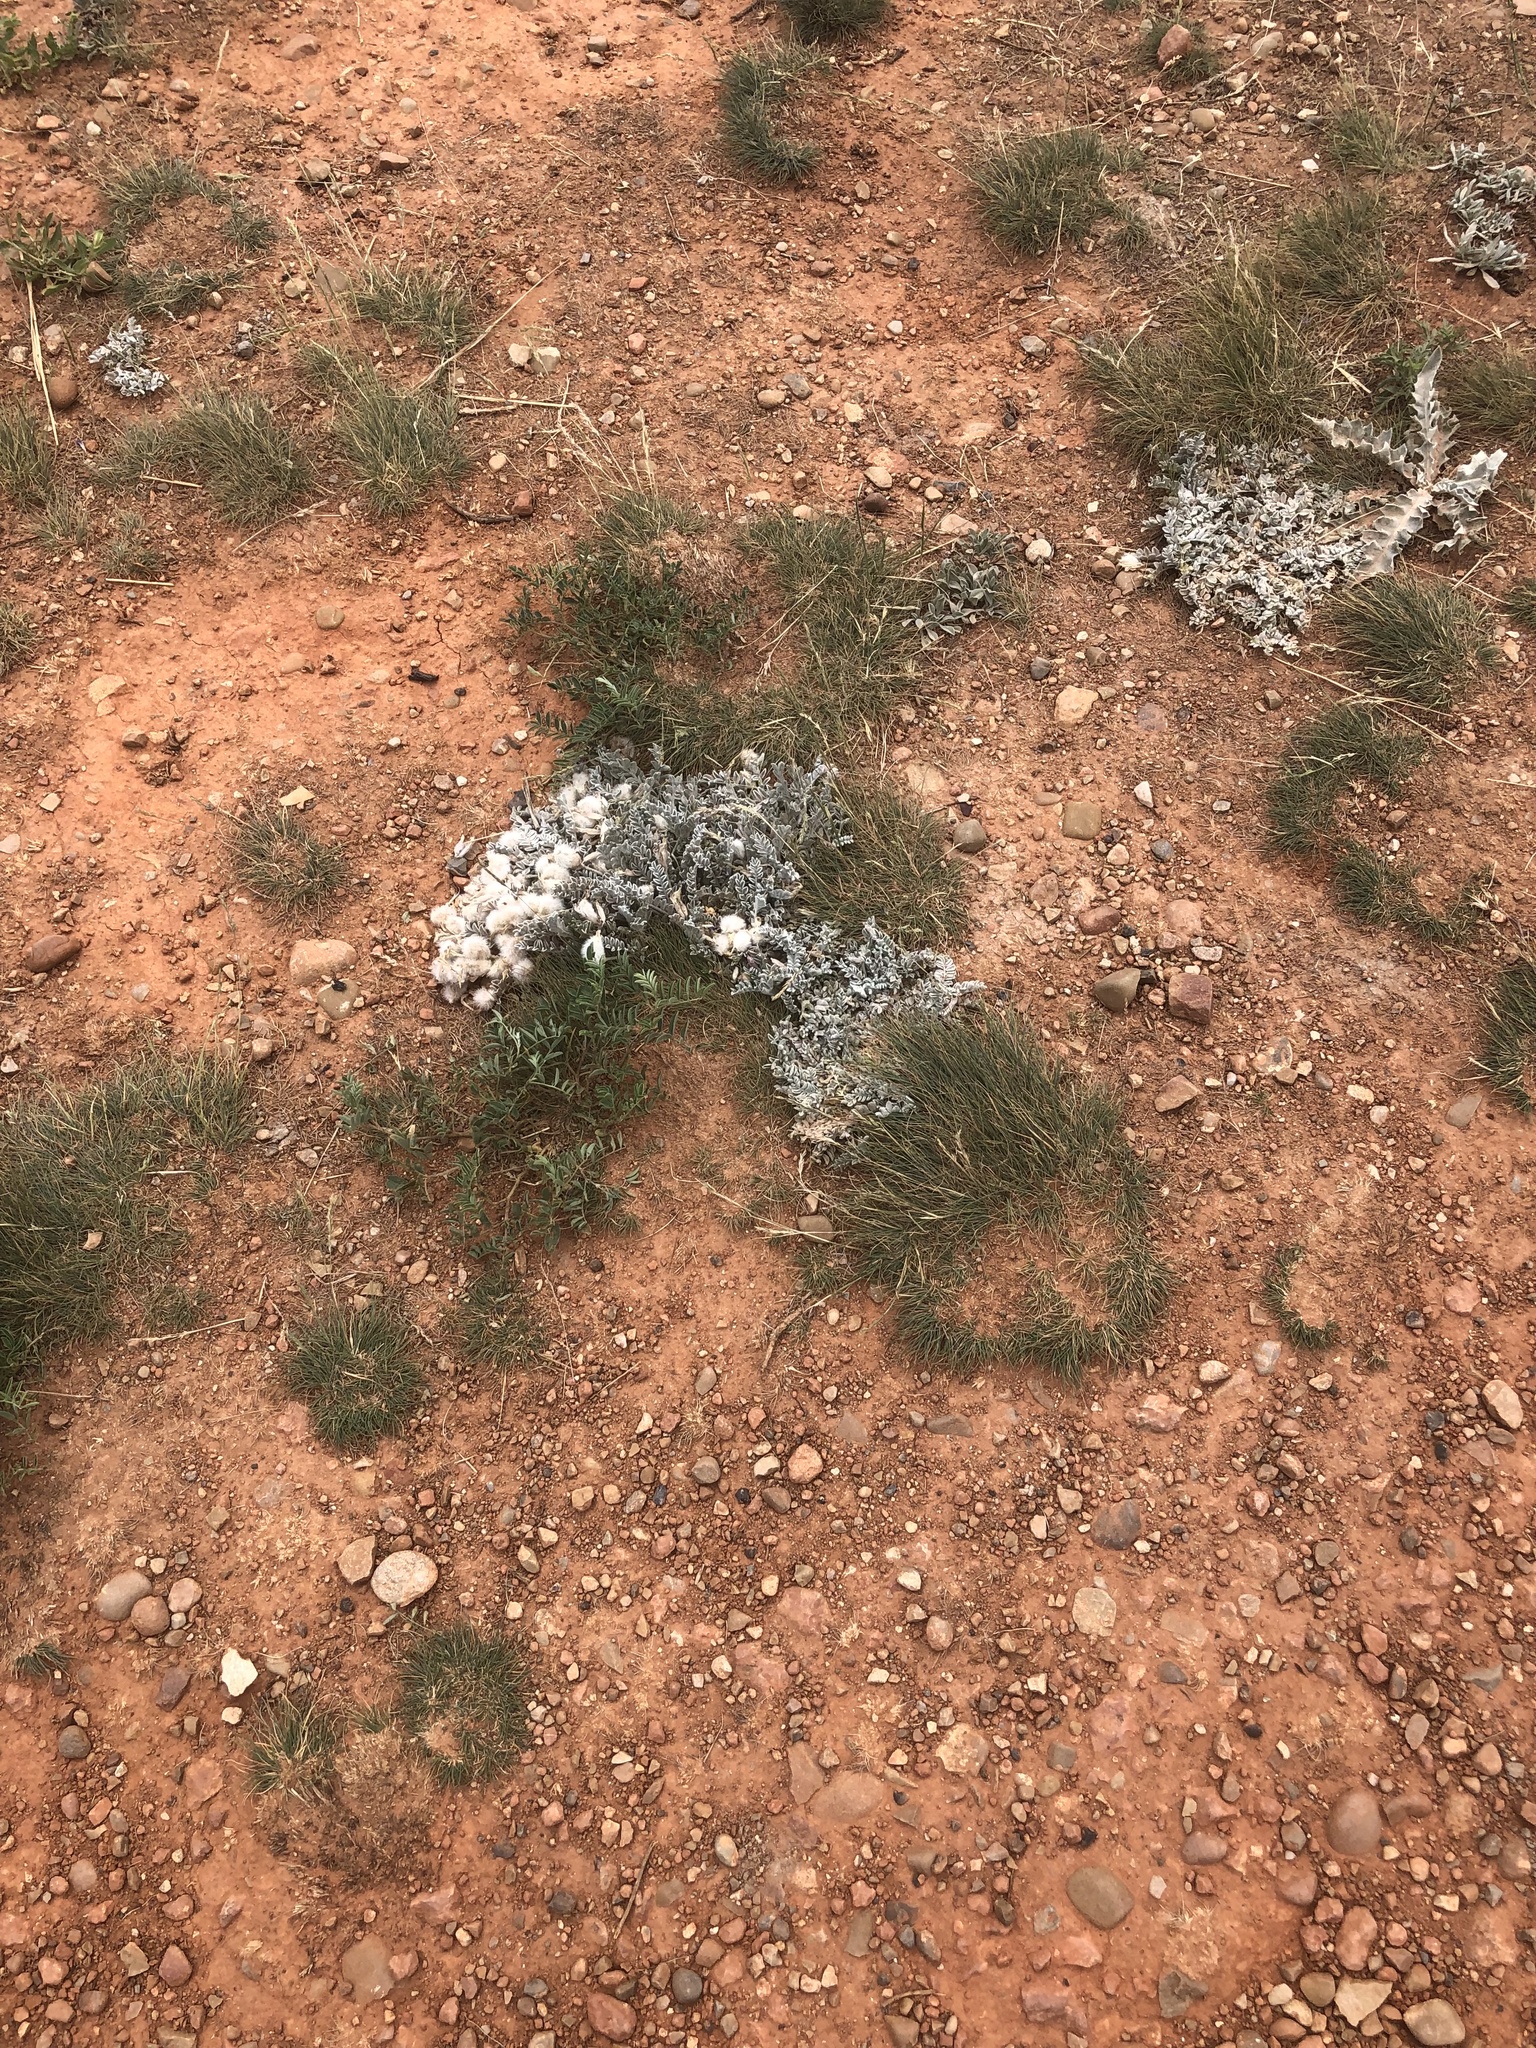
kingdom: Plantae
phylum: Tracheophyta
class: Magnoliopsida
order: Fabales
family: Fabaceae
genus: Astragalus
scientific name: Astragalus utahensis
